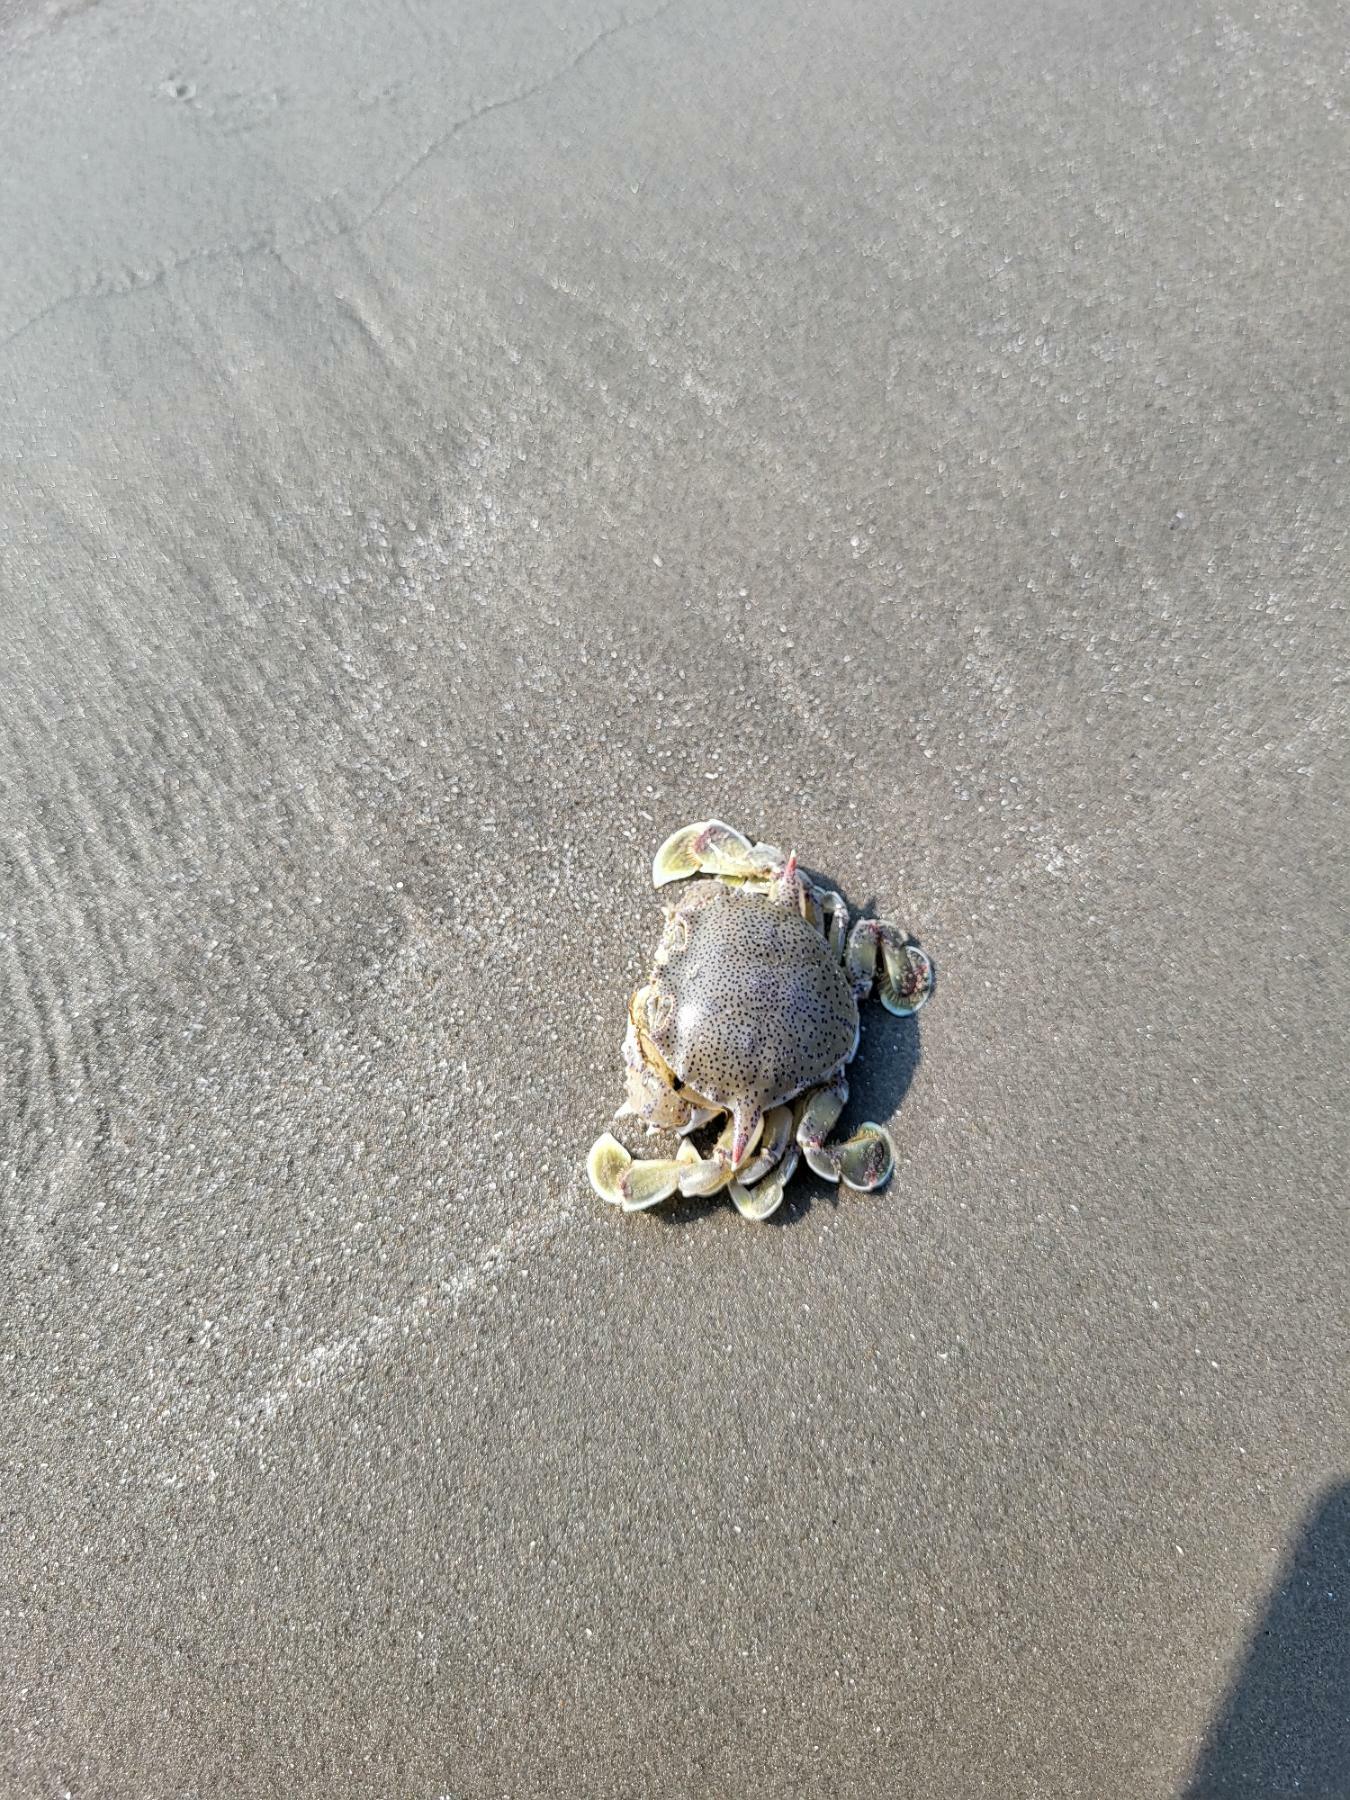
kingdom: Animalia
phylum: Arthropoda
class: Malacostraca
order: Decapoda
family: Matutidae
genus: Matuta
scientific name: Matuta victor
